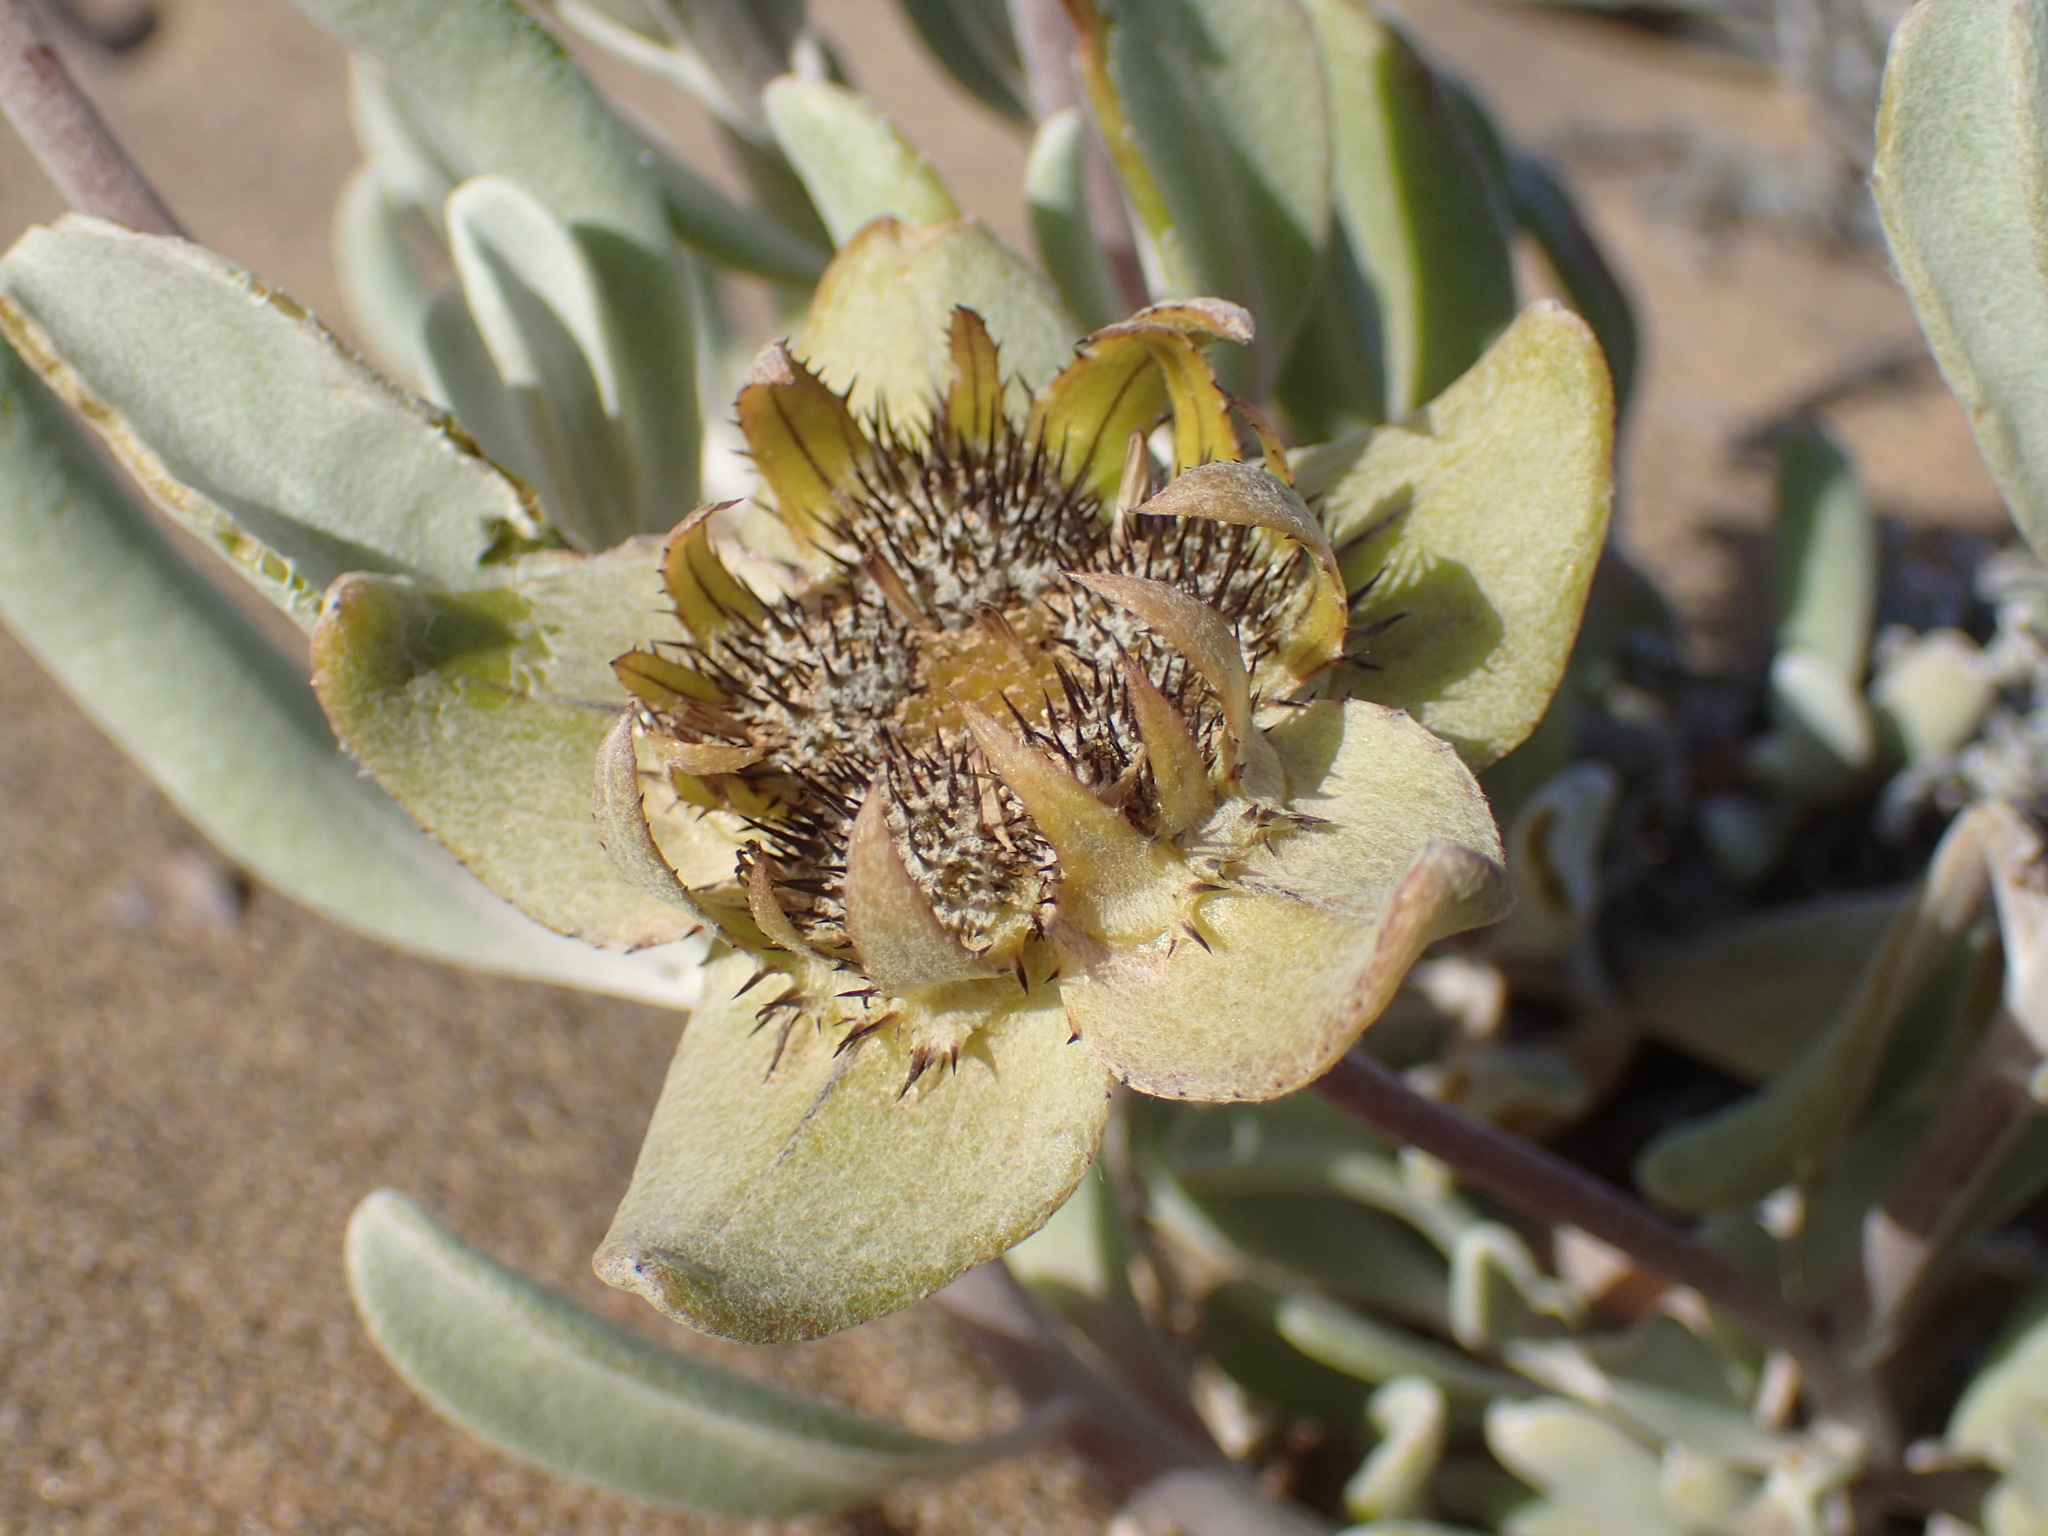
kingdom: Plantae
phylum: Tracheophyta
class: Magnoliopsida
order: Asterales
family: Asteraceae
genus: Didelta
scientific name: Didelta carnosa
